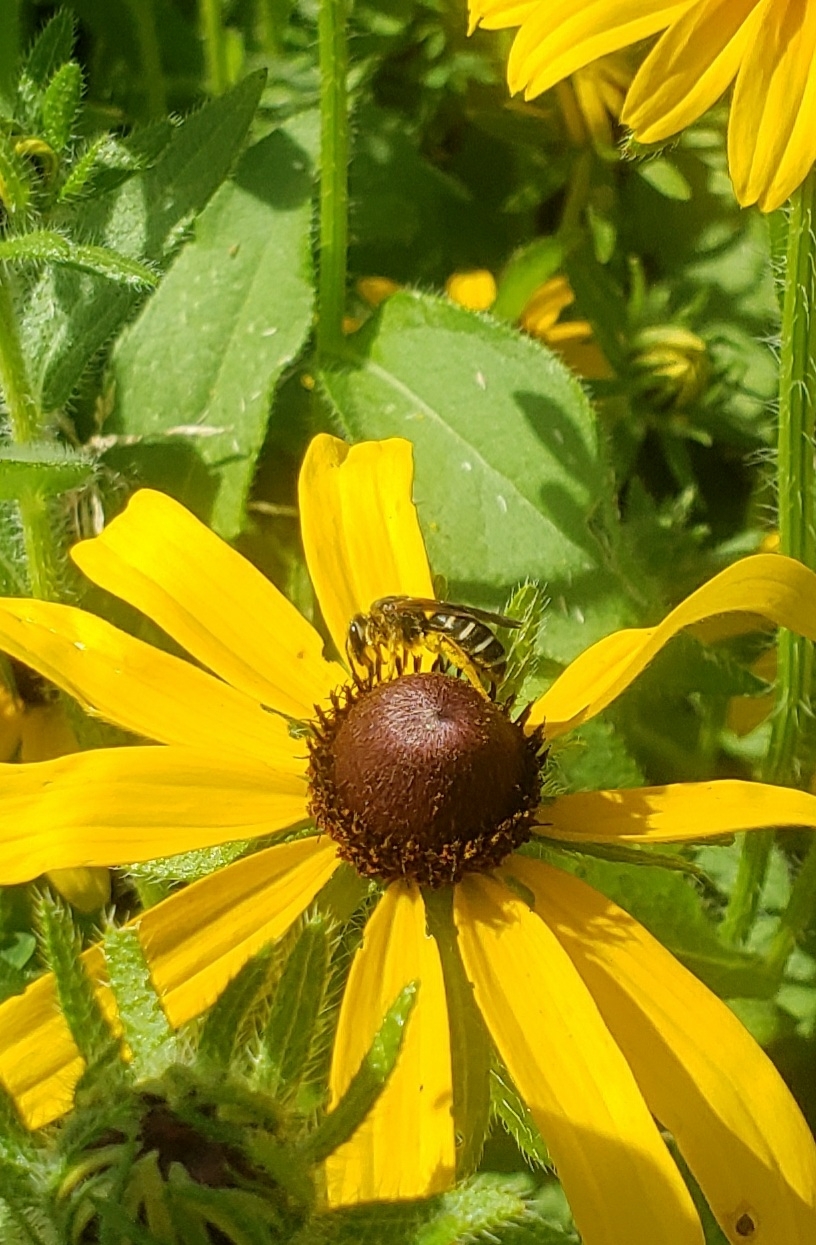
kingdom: Animalia
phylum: Arthropoda
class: Insecta
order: Hymenoptera
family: Halictidae
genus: Halictus
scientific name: Halictus rubicundus
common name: Orange-legged furrow bee
